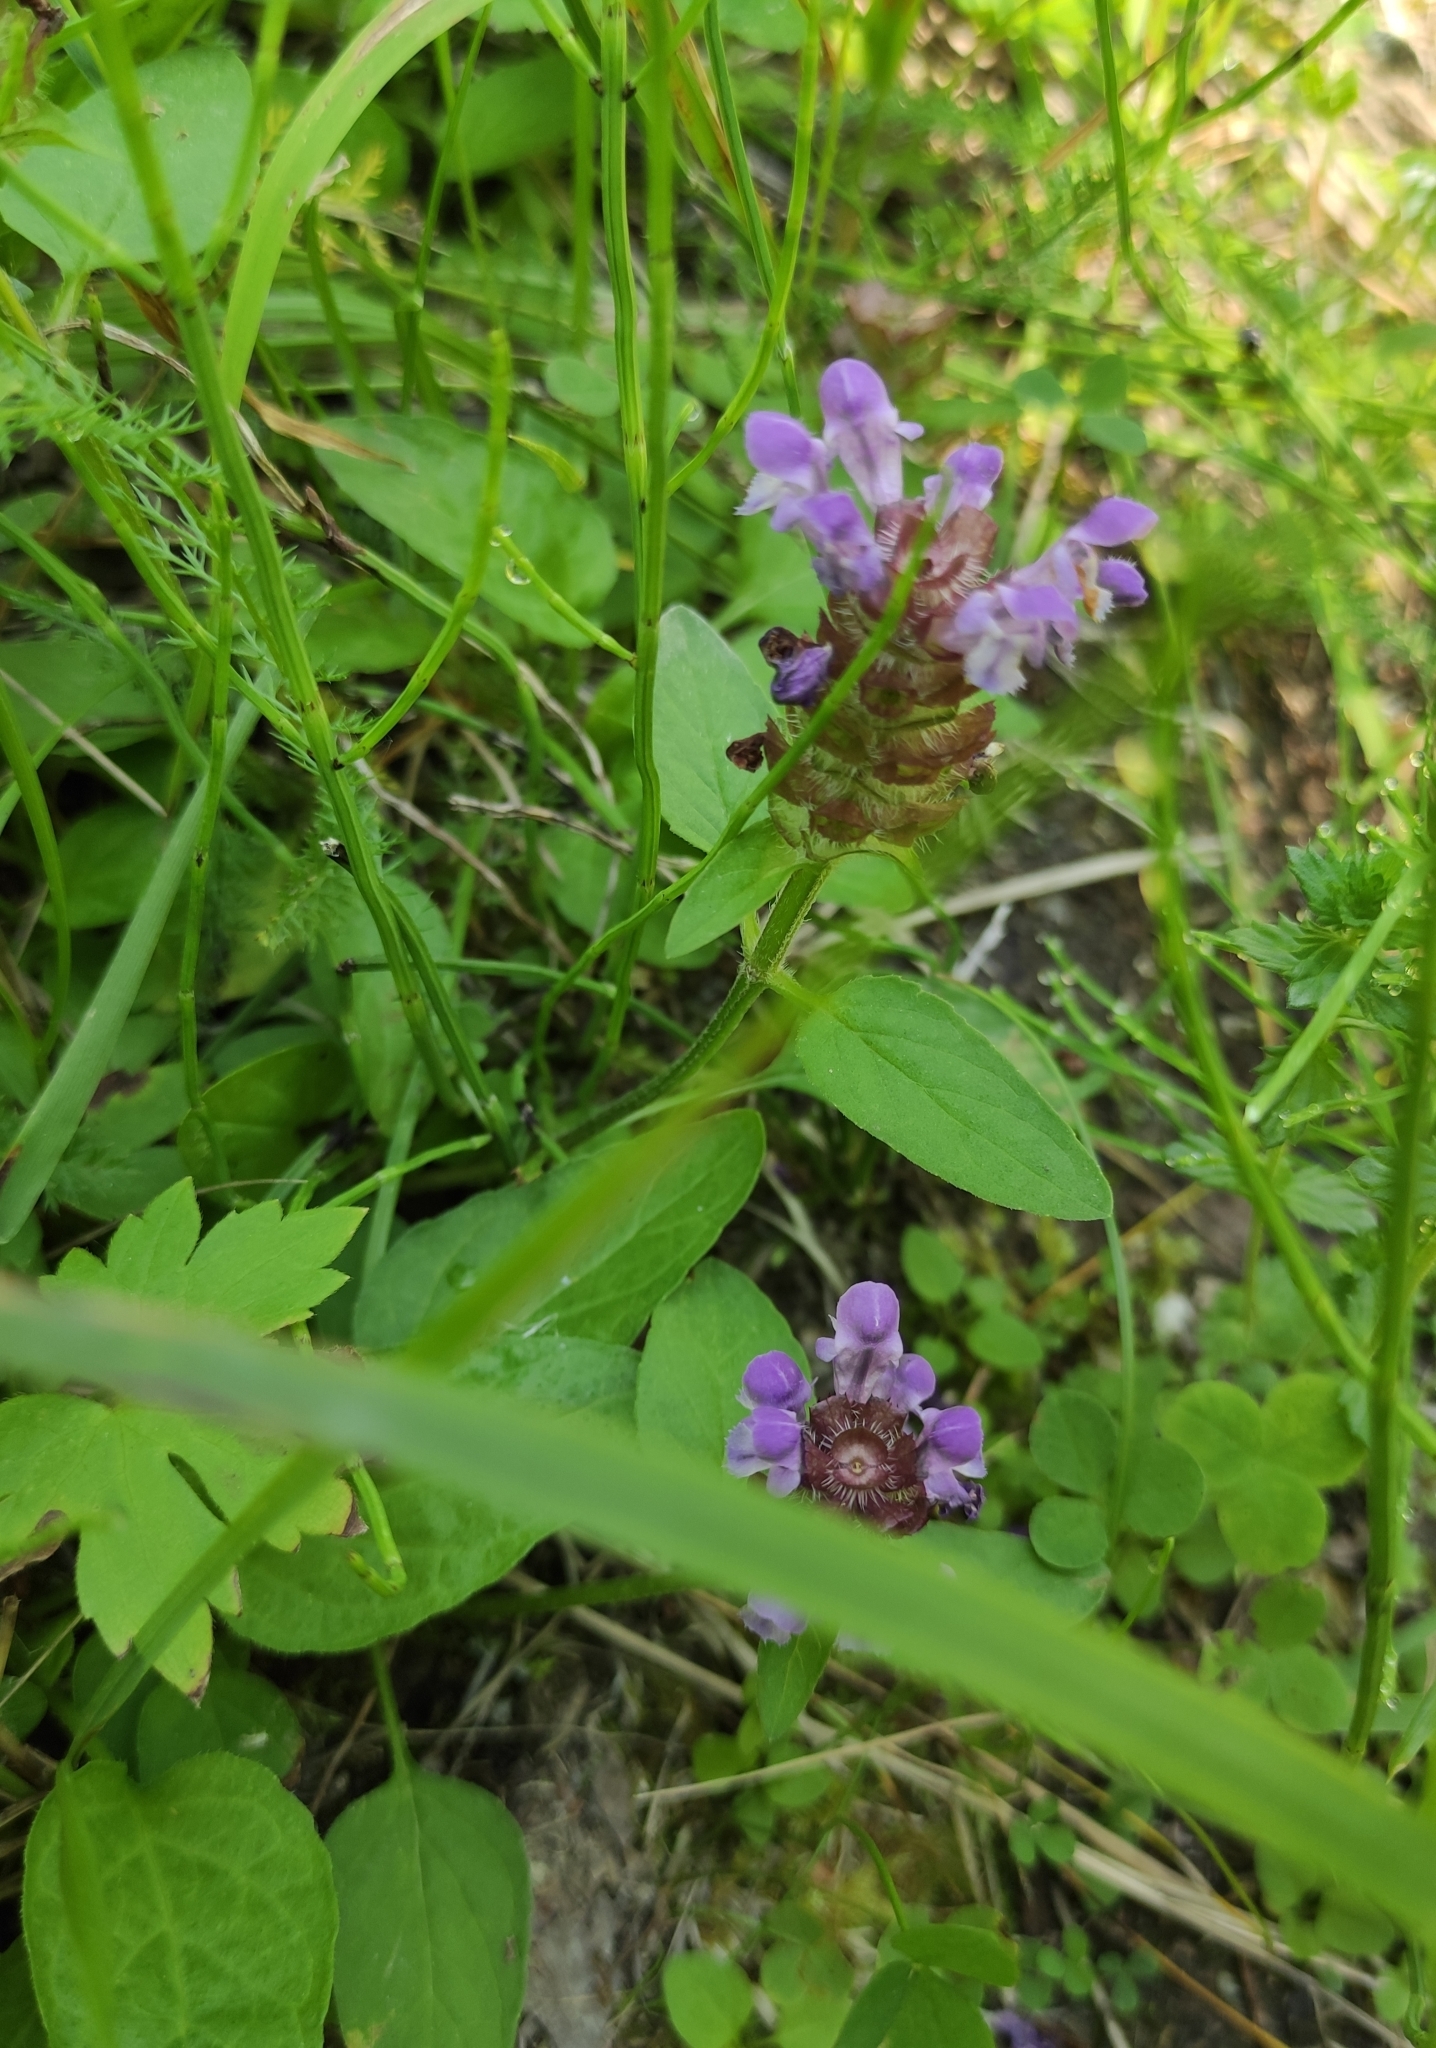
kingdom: Plantae
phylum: Tracheophyta
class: Magnoliopsida
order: Lamiales
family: Lamiaceae
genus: Prunella
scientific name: Prunella vulgaris
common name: Heal-all
